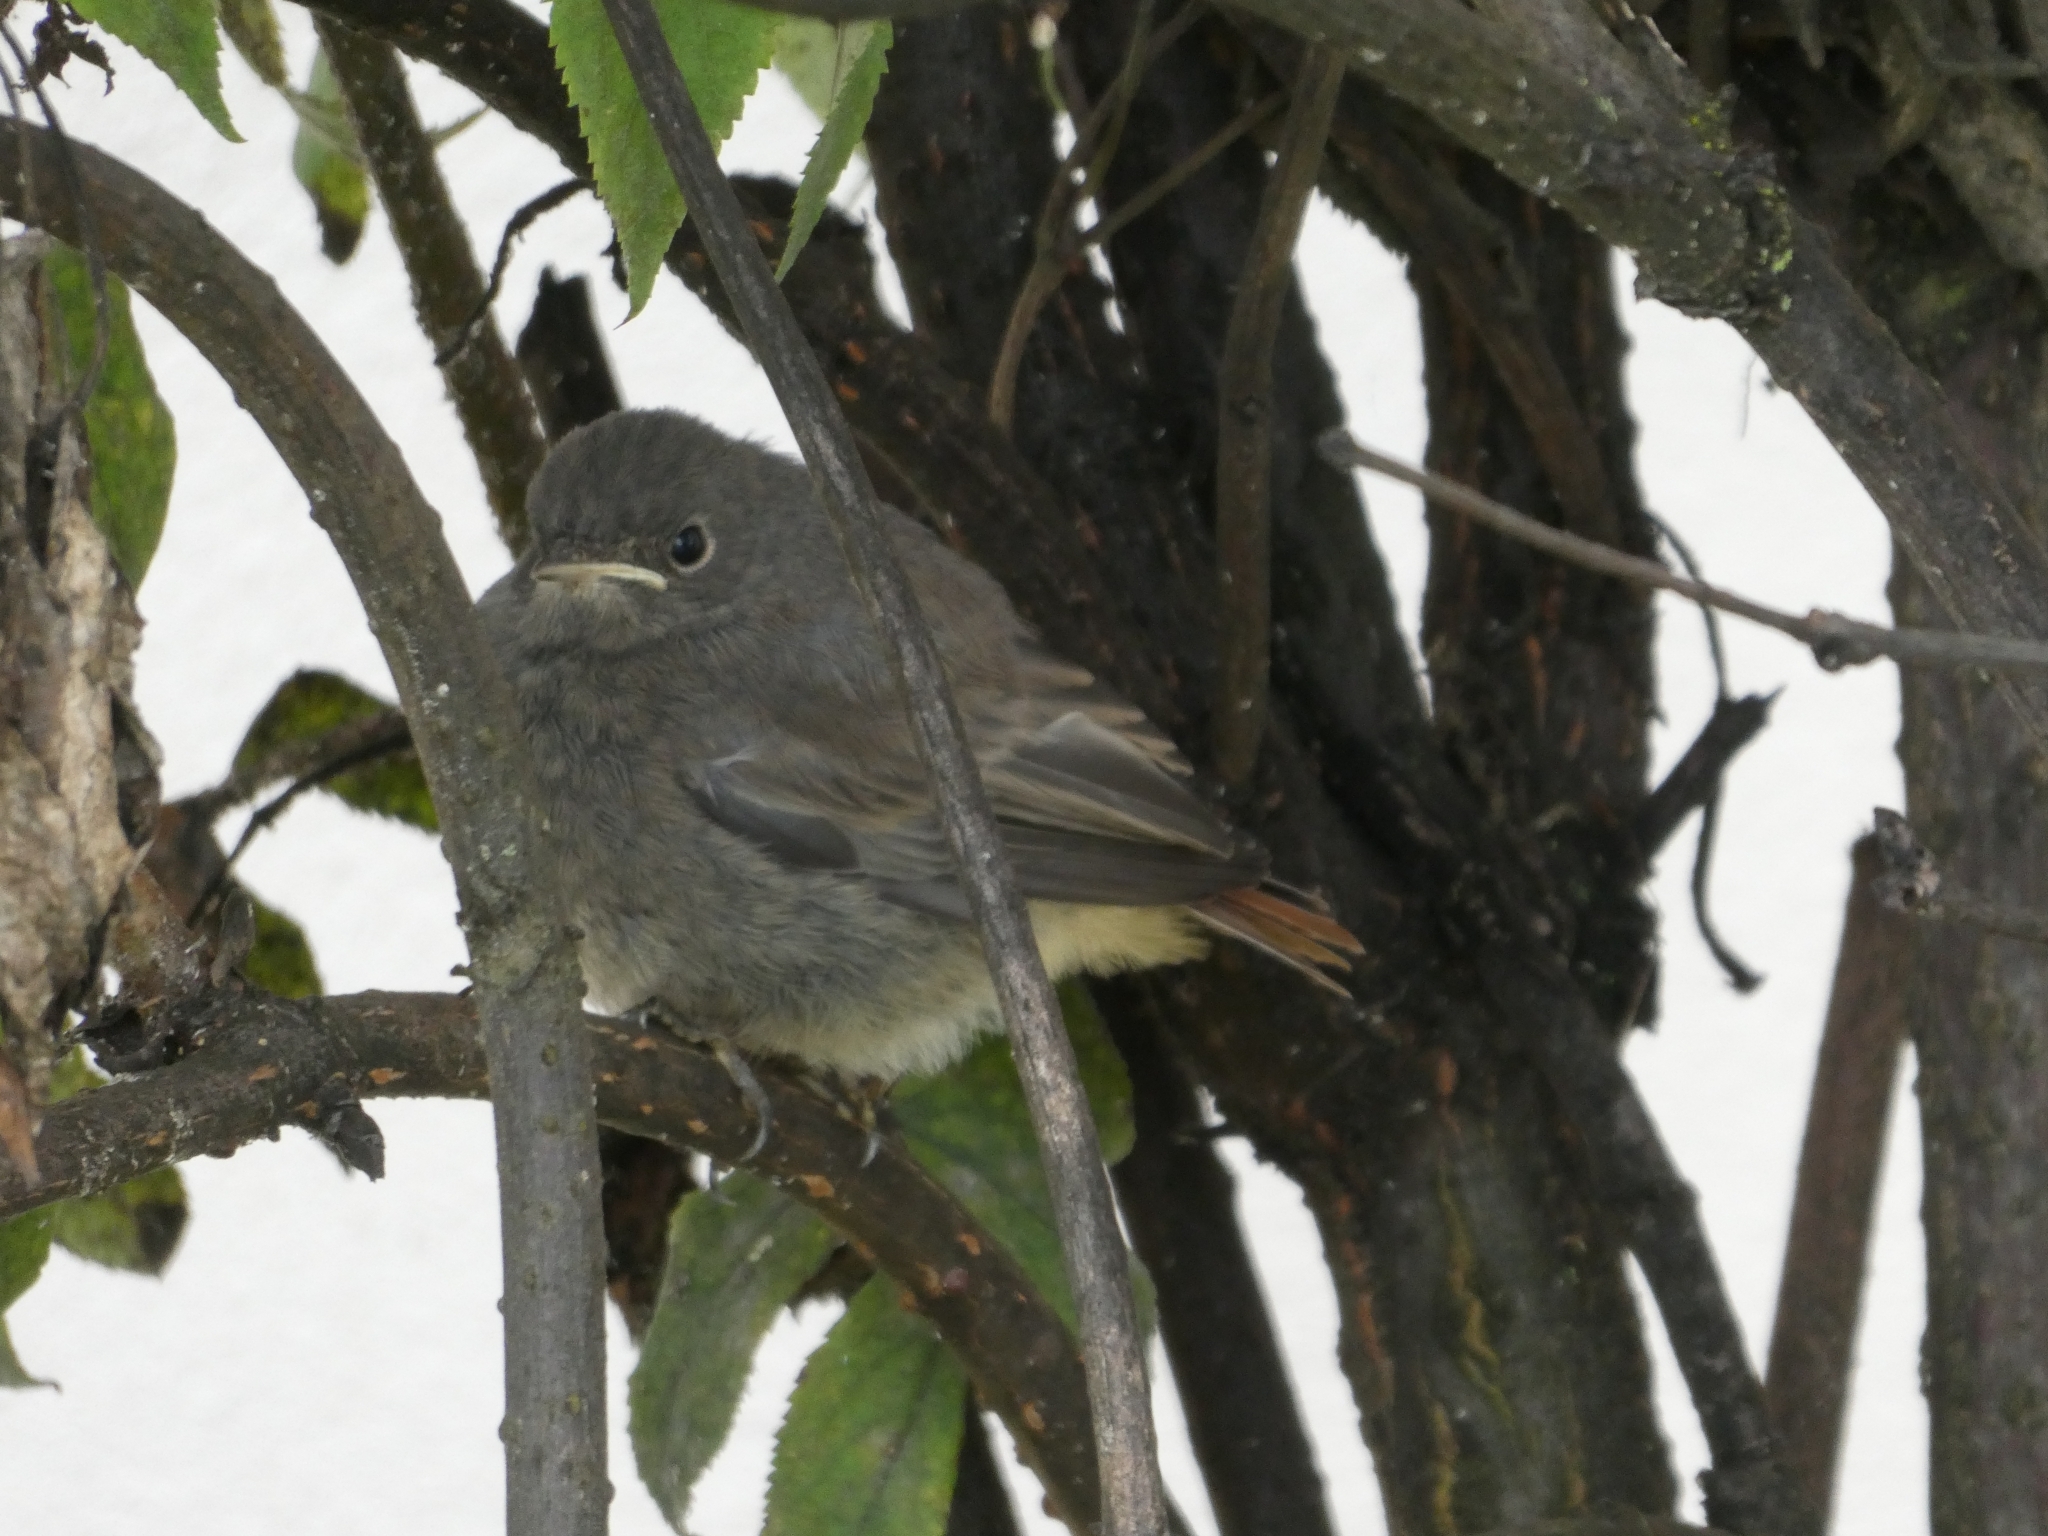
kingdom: Animalia
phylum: Chordata
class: Aves
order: Passeriformes
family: Muscicapidae
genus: Phoenicurus
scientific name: Phoenicurus ochruros
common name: Black redstart
